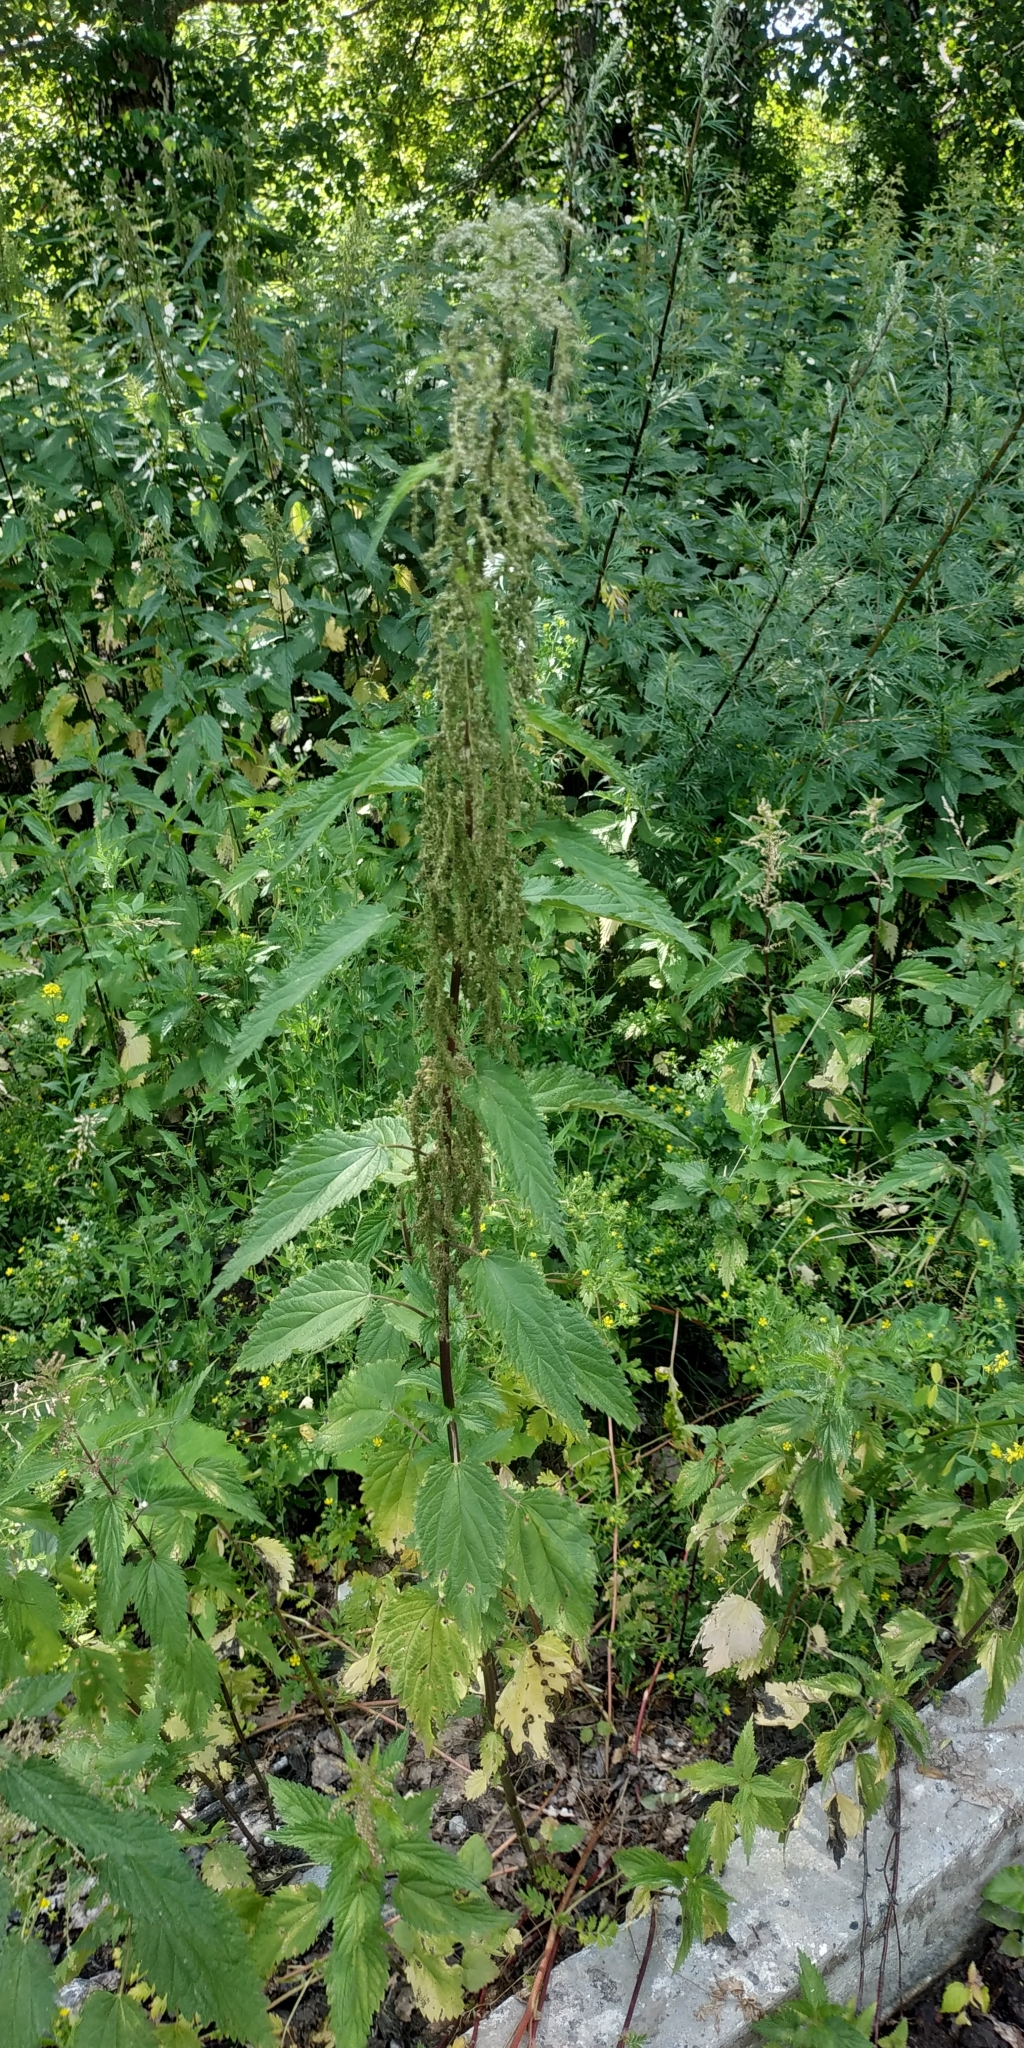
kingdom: Plantae
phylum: Tracheophyta
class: Magnoliopsida
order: Rosales
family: Urticaceae
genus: Urtica
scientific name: Urtica galeopsifolia
